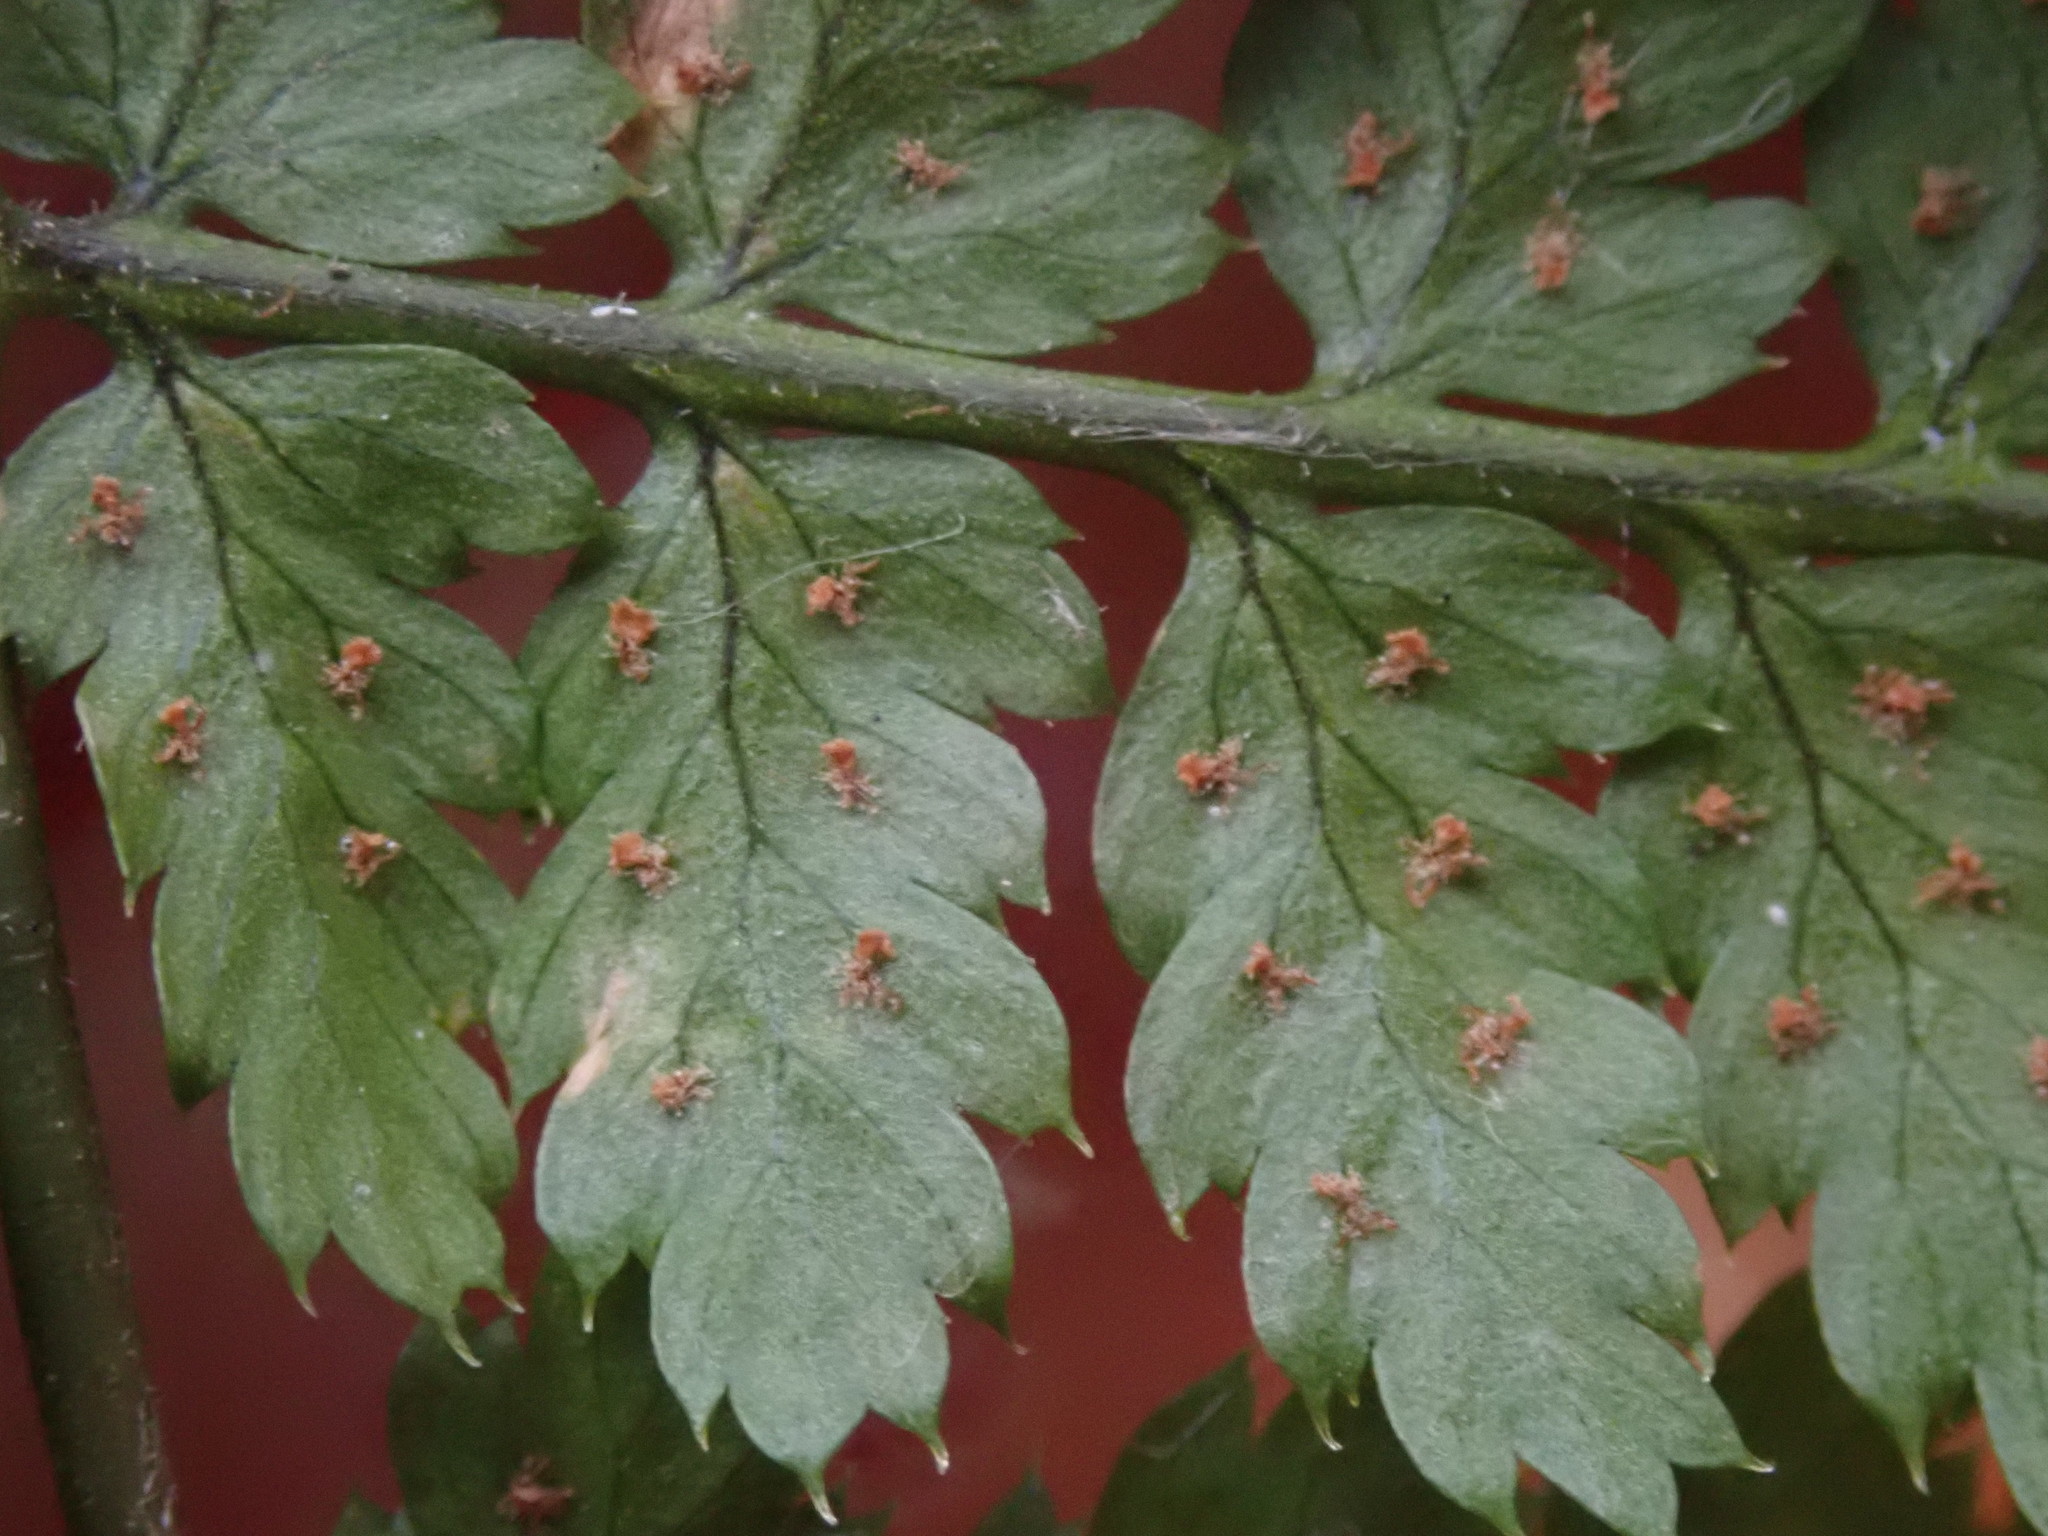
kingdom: Plantae
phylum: Tracheophyta
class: Polypodiopsida
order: Polypodiales
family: Dryopteridaceae
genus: Dryopteris
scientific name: Dryopteris intermedia
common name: Evergreen wood fern
